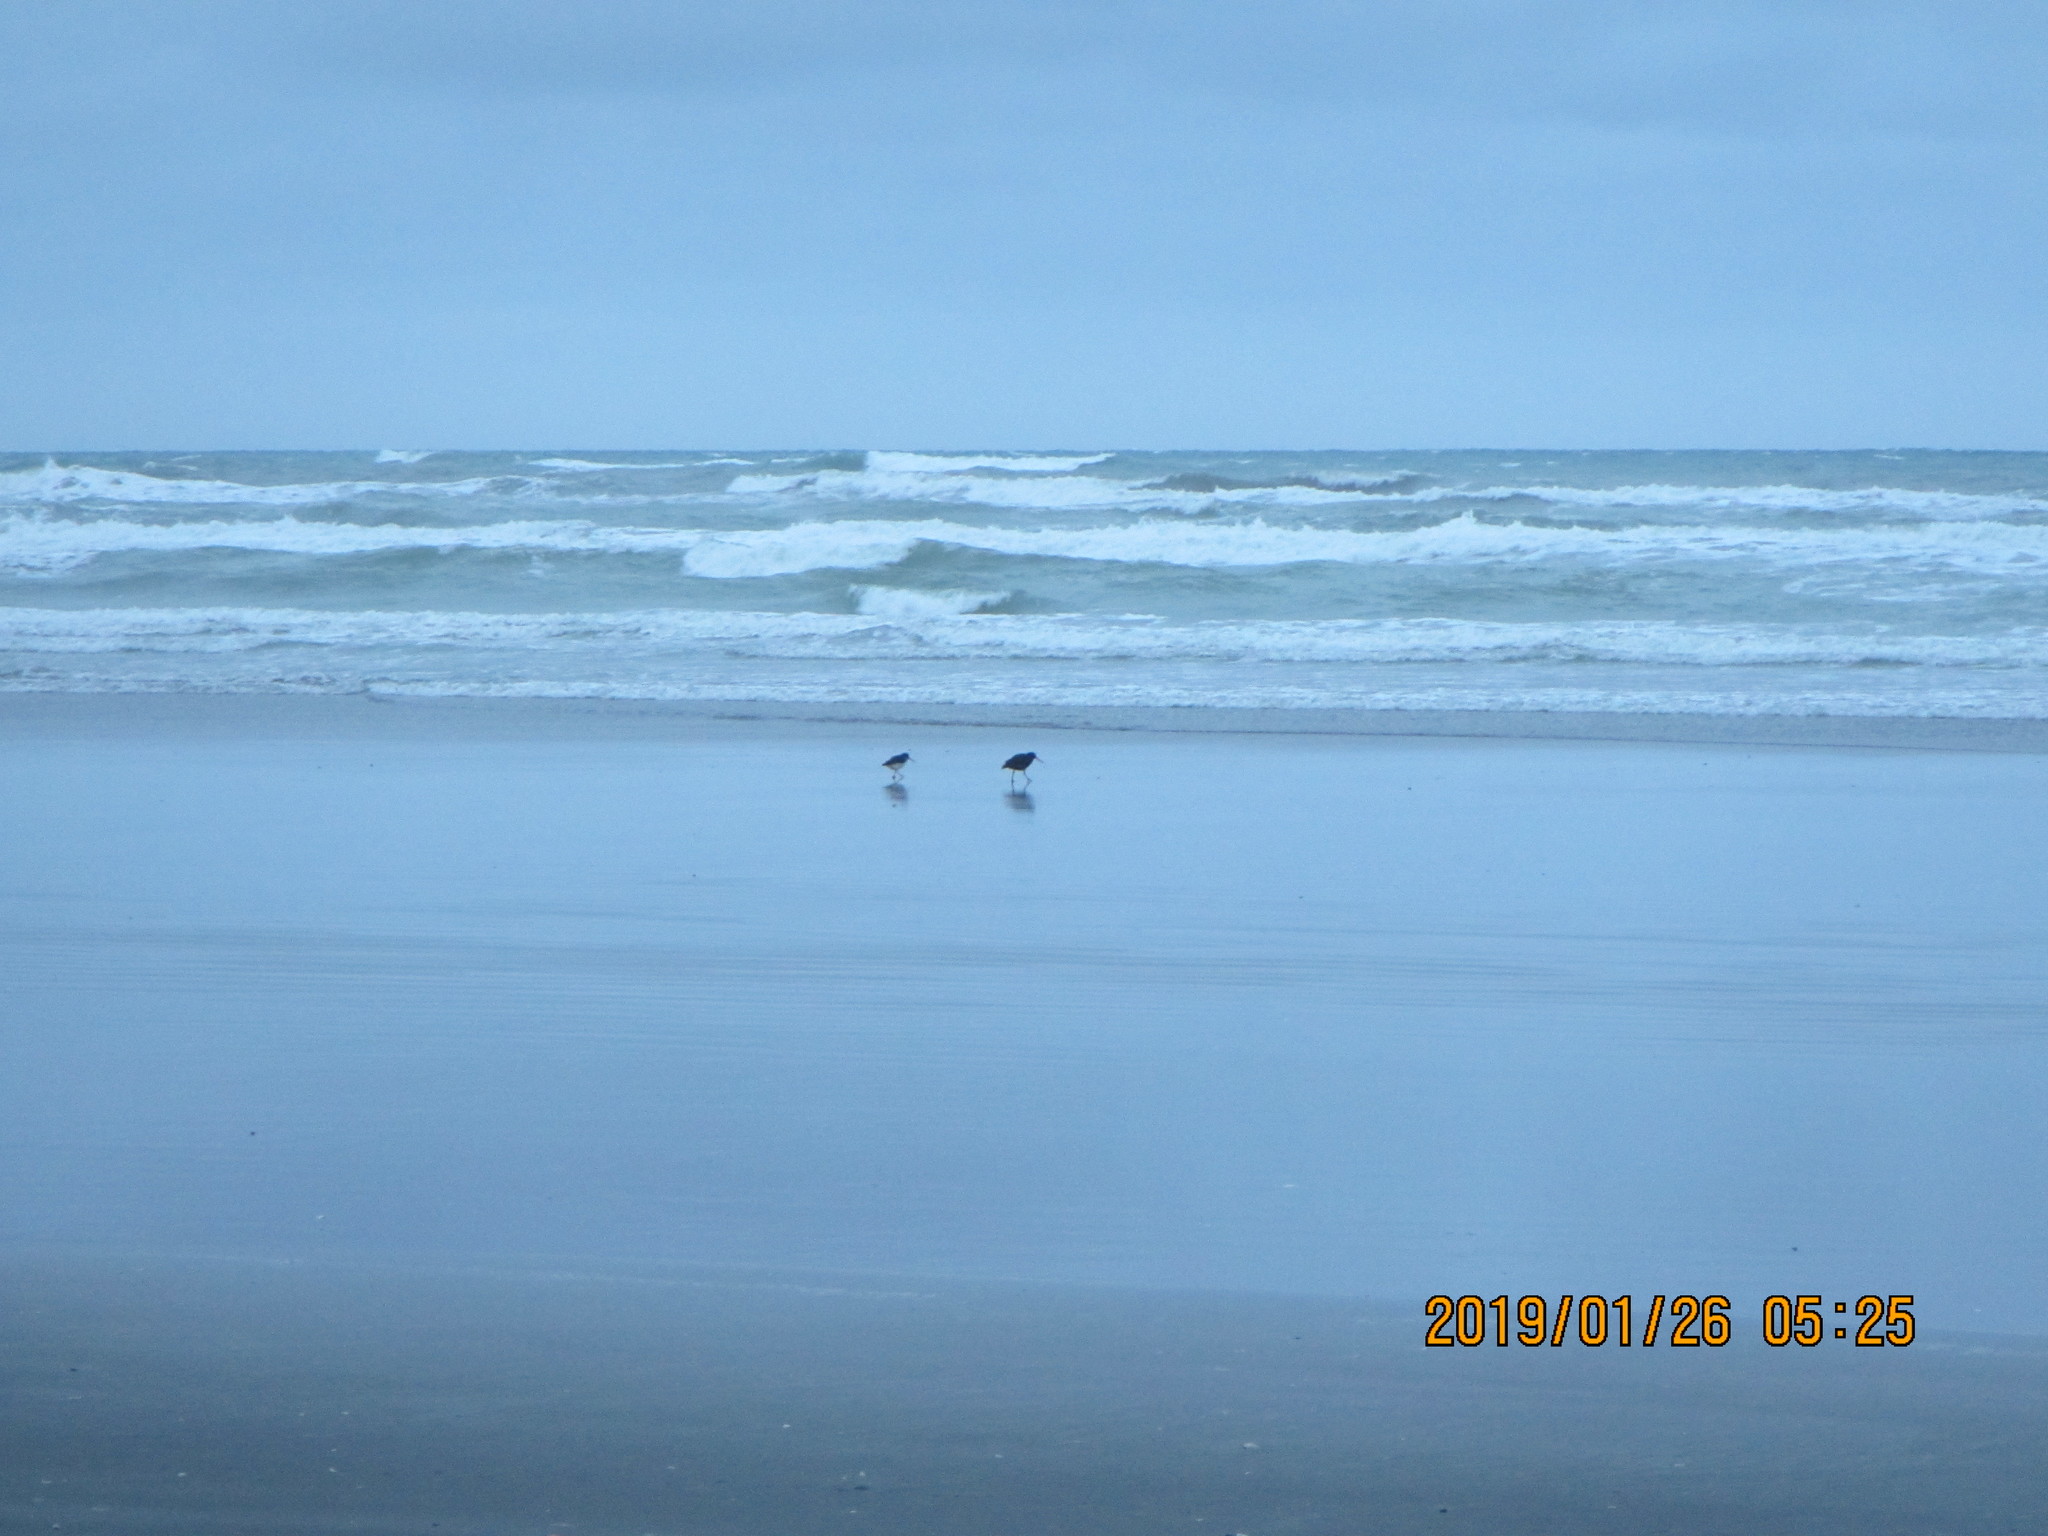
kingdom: Animalia
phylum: Chordata
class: Aves
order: Charadriiformes
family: Haematopodidae
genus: Haematopus
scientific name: Haematopus unicolor
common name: Variable oystercatcher
